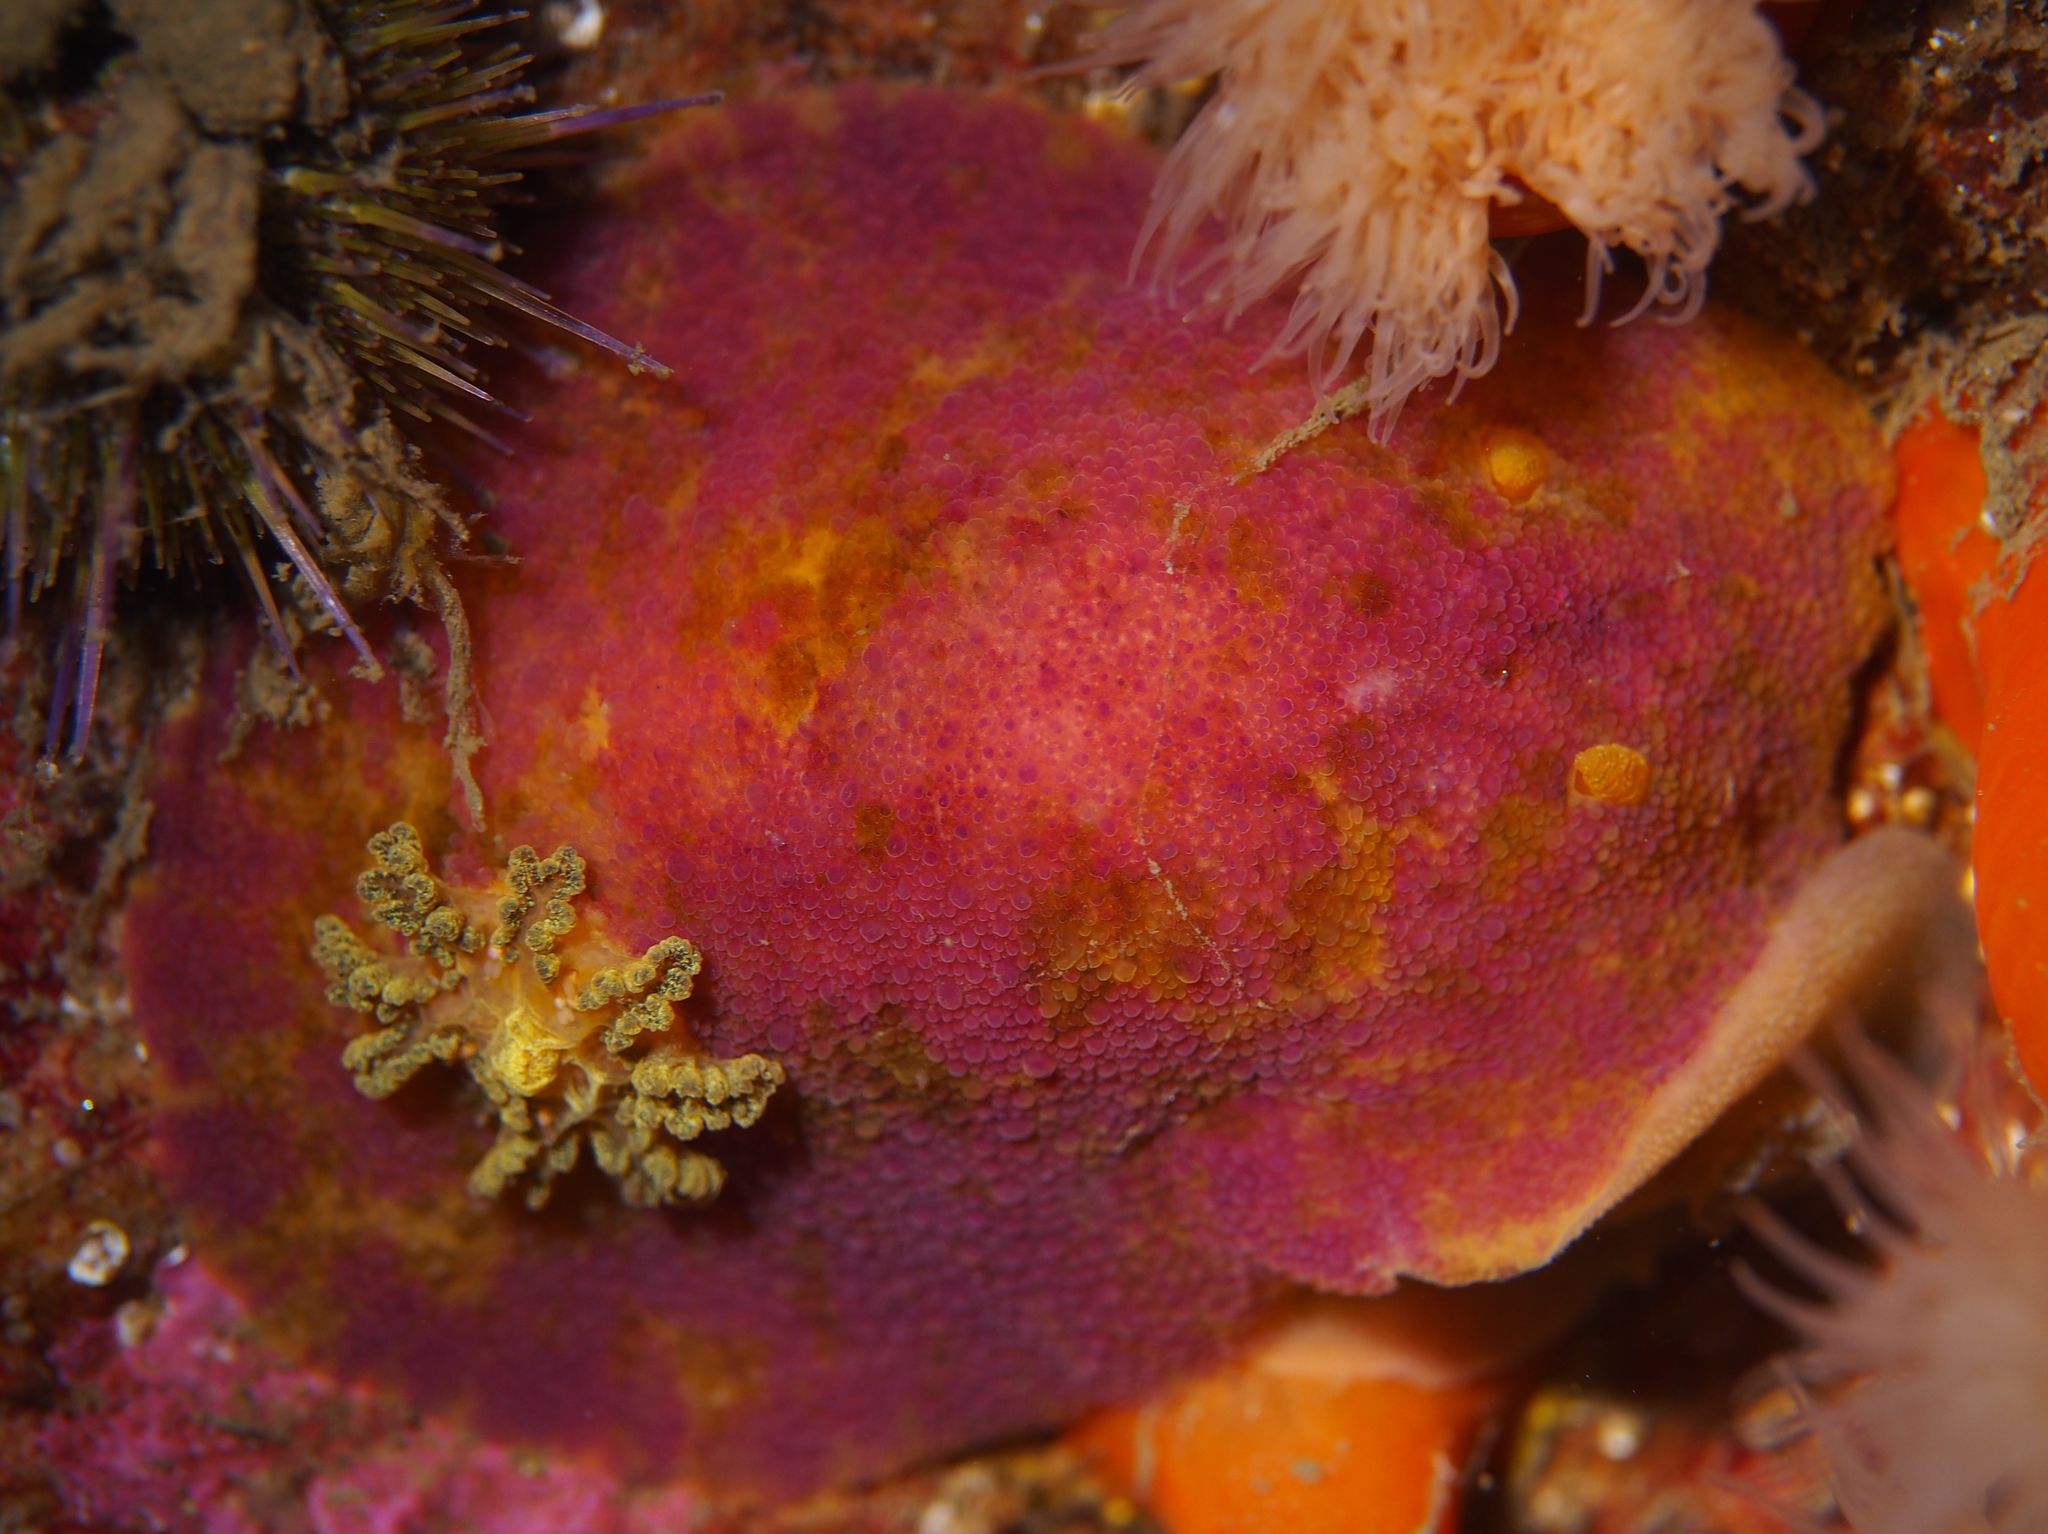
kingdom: Animalia
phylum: Mollusca
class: Gastropoda
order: Nudibranchia
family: Dorididae
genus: Doris
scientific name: Doris pseudoargus
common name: Sea lemon
